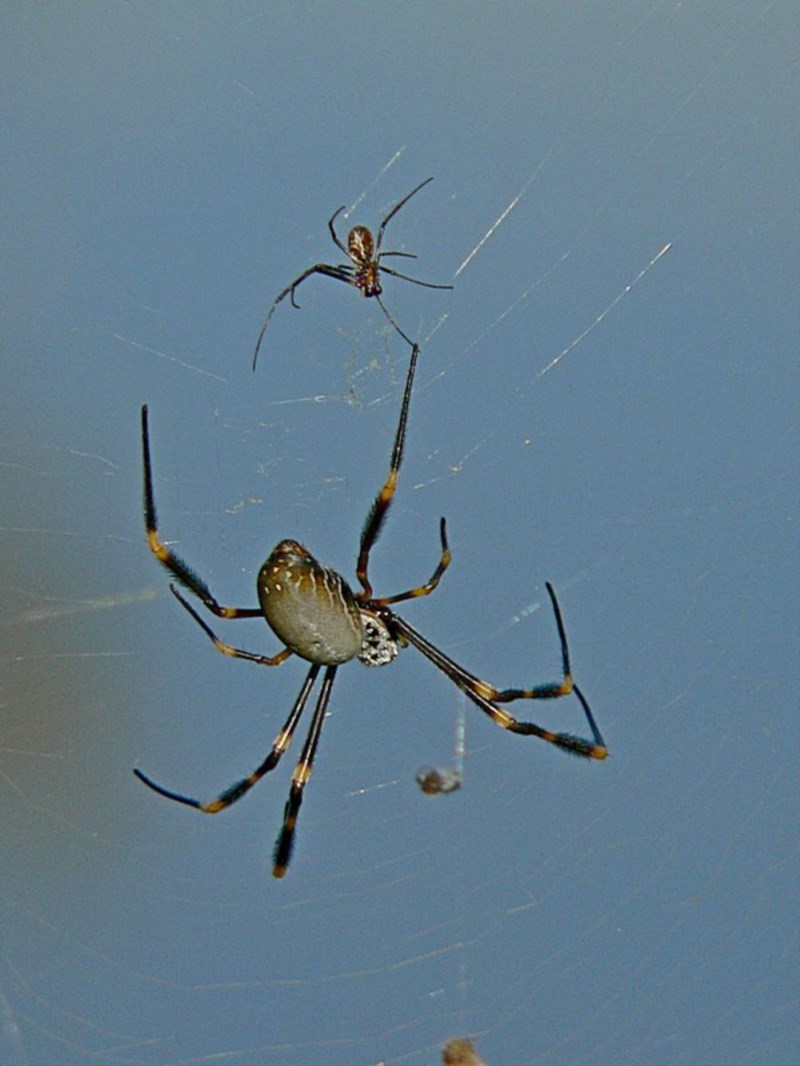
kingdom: Animalia
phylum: Arthropoda
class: Arachnida
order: Araneae
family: Araneidae
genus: Trichonephila
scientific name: Trichonephila plumipes
